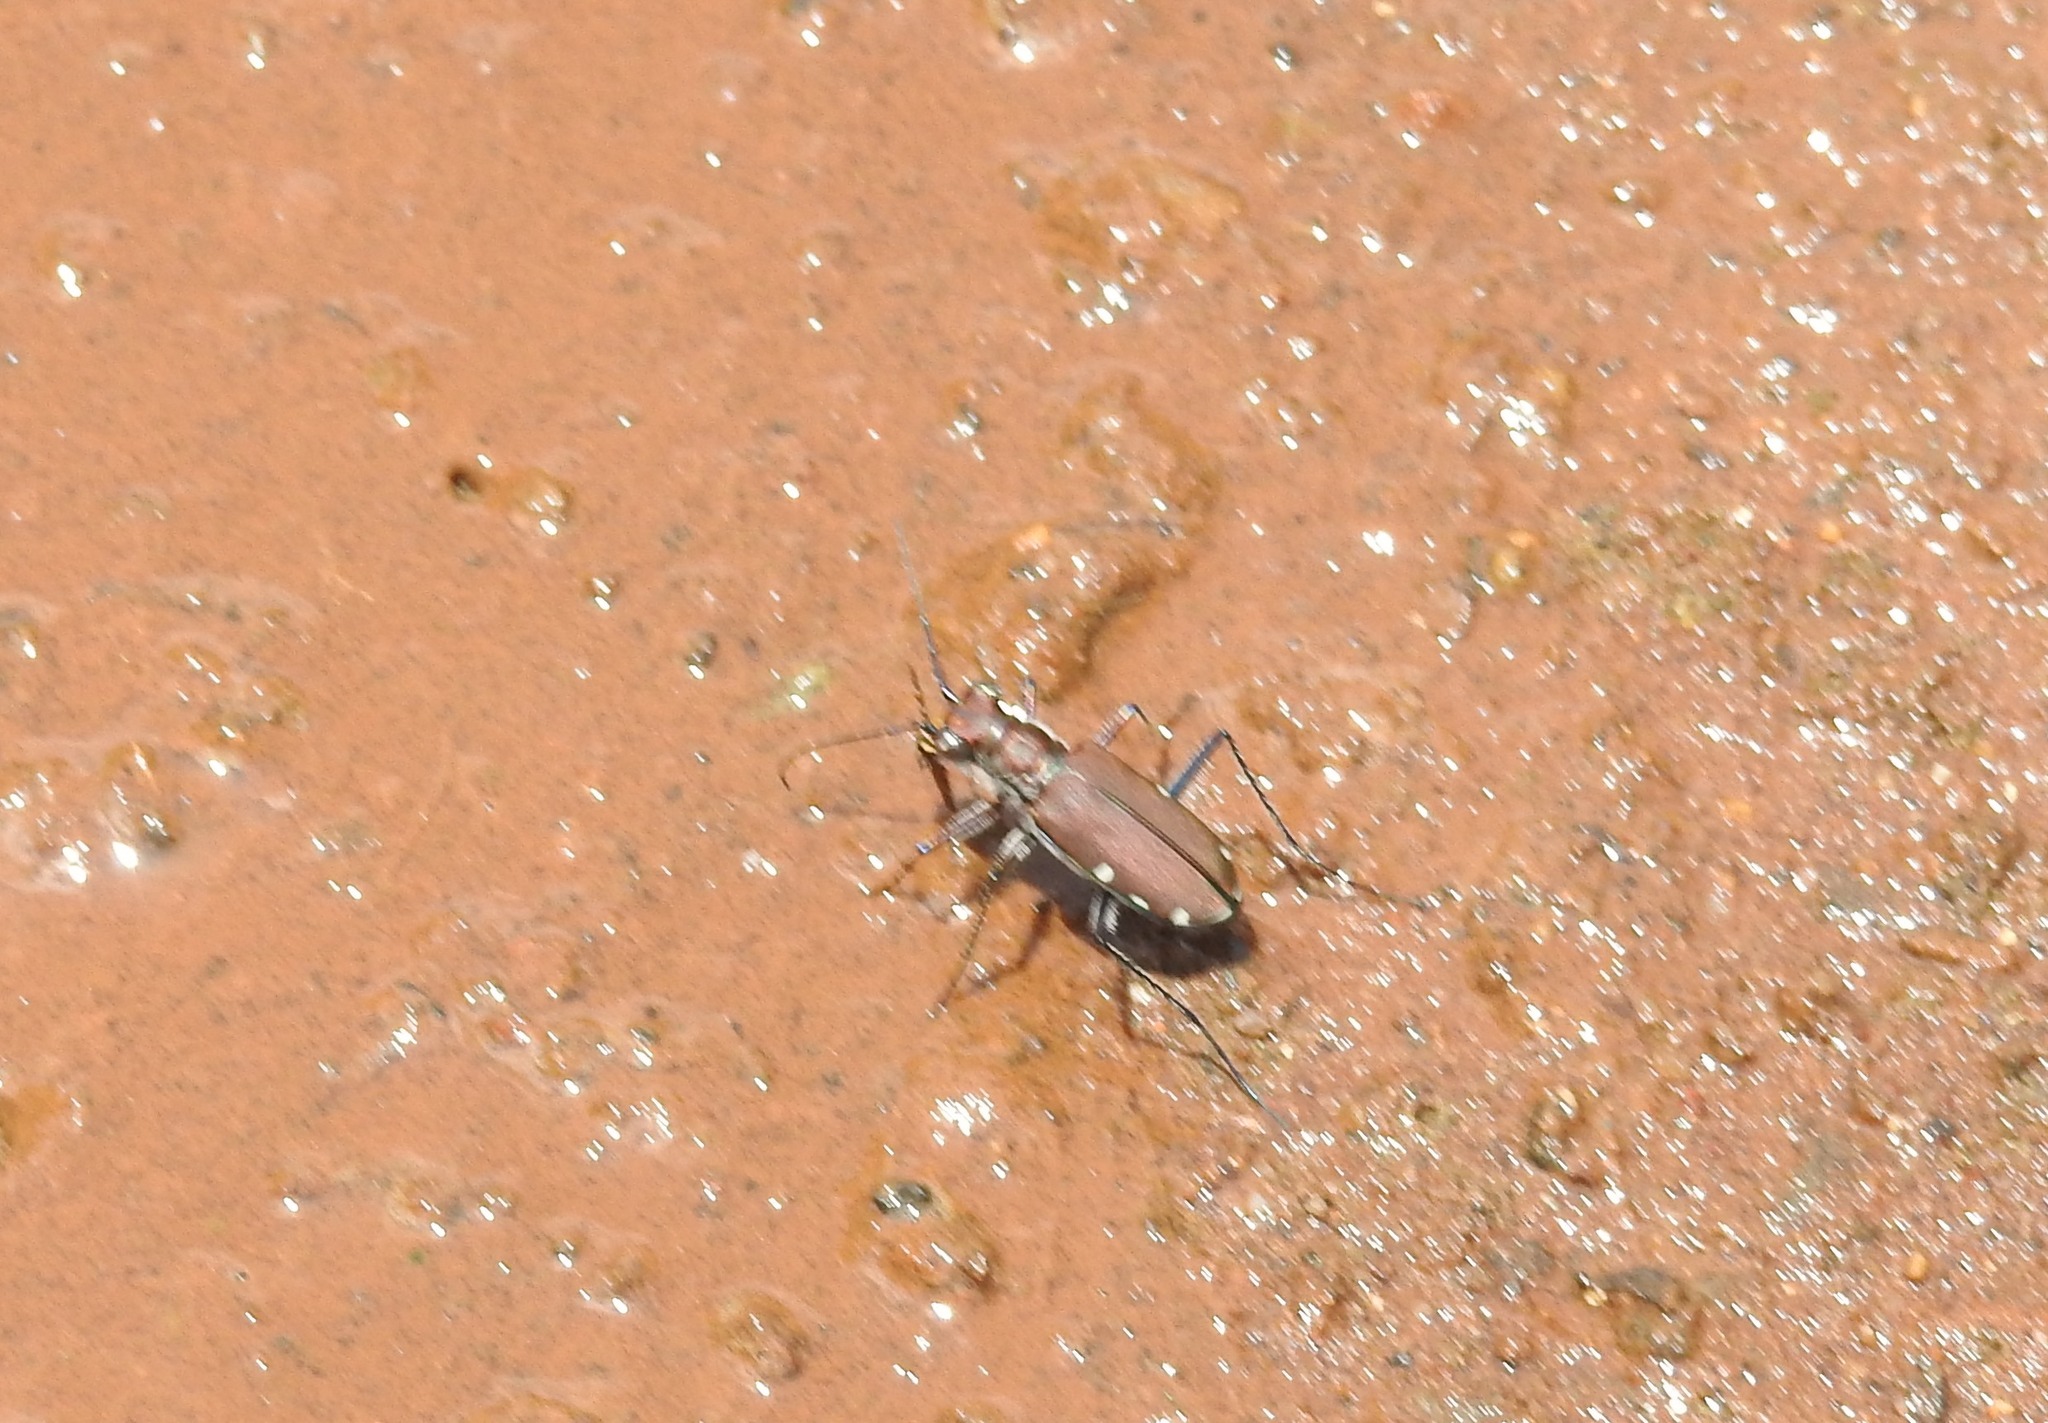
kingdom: Animalia
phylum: Arthropoda
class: Insecta
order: Coleoptera
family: Carabidae
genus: Cicindela
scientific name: Cicindela funerea
